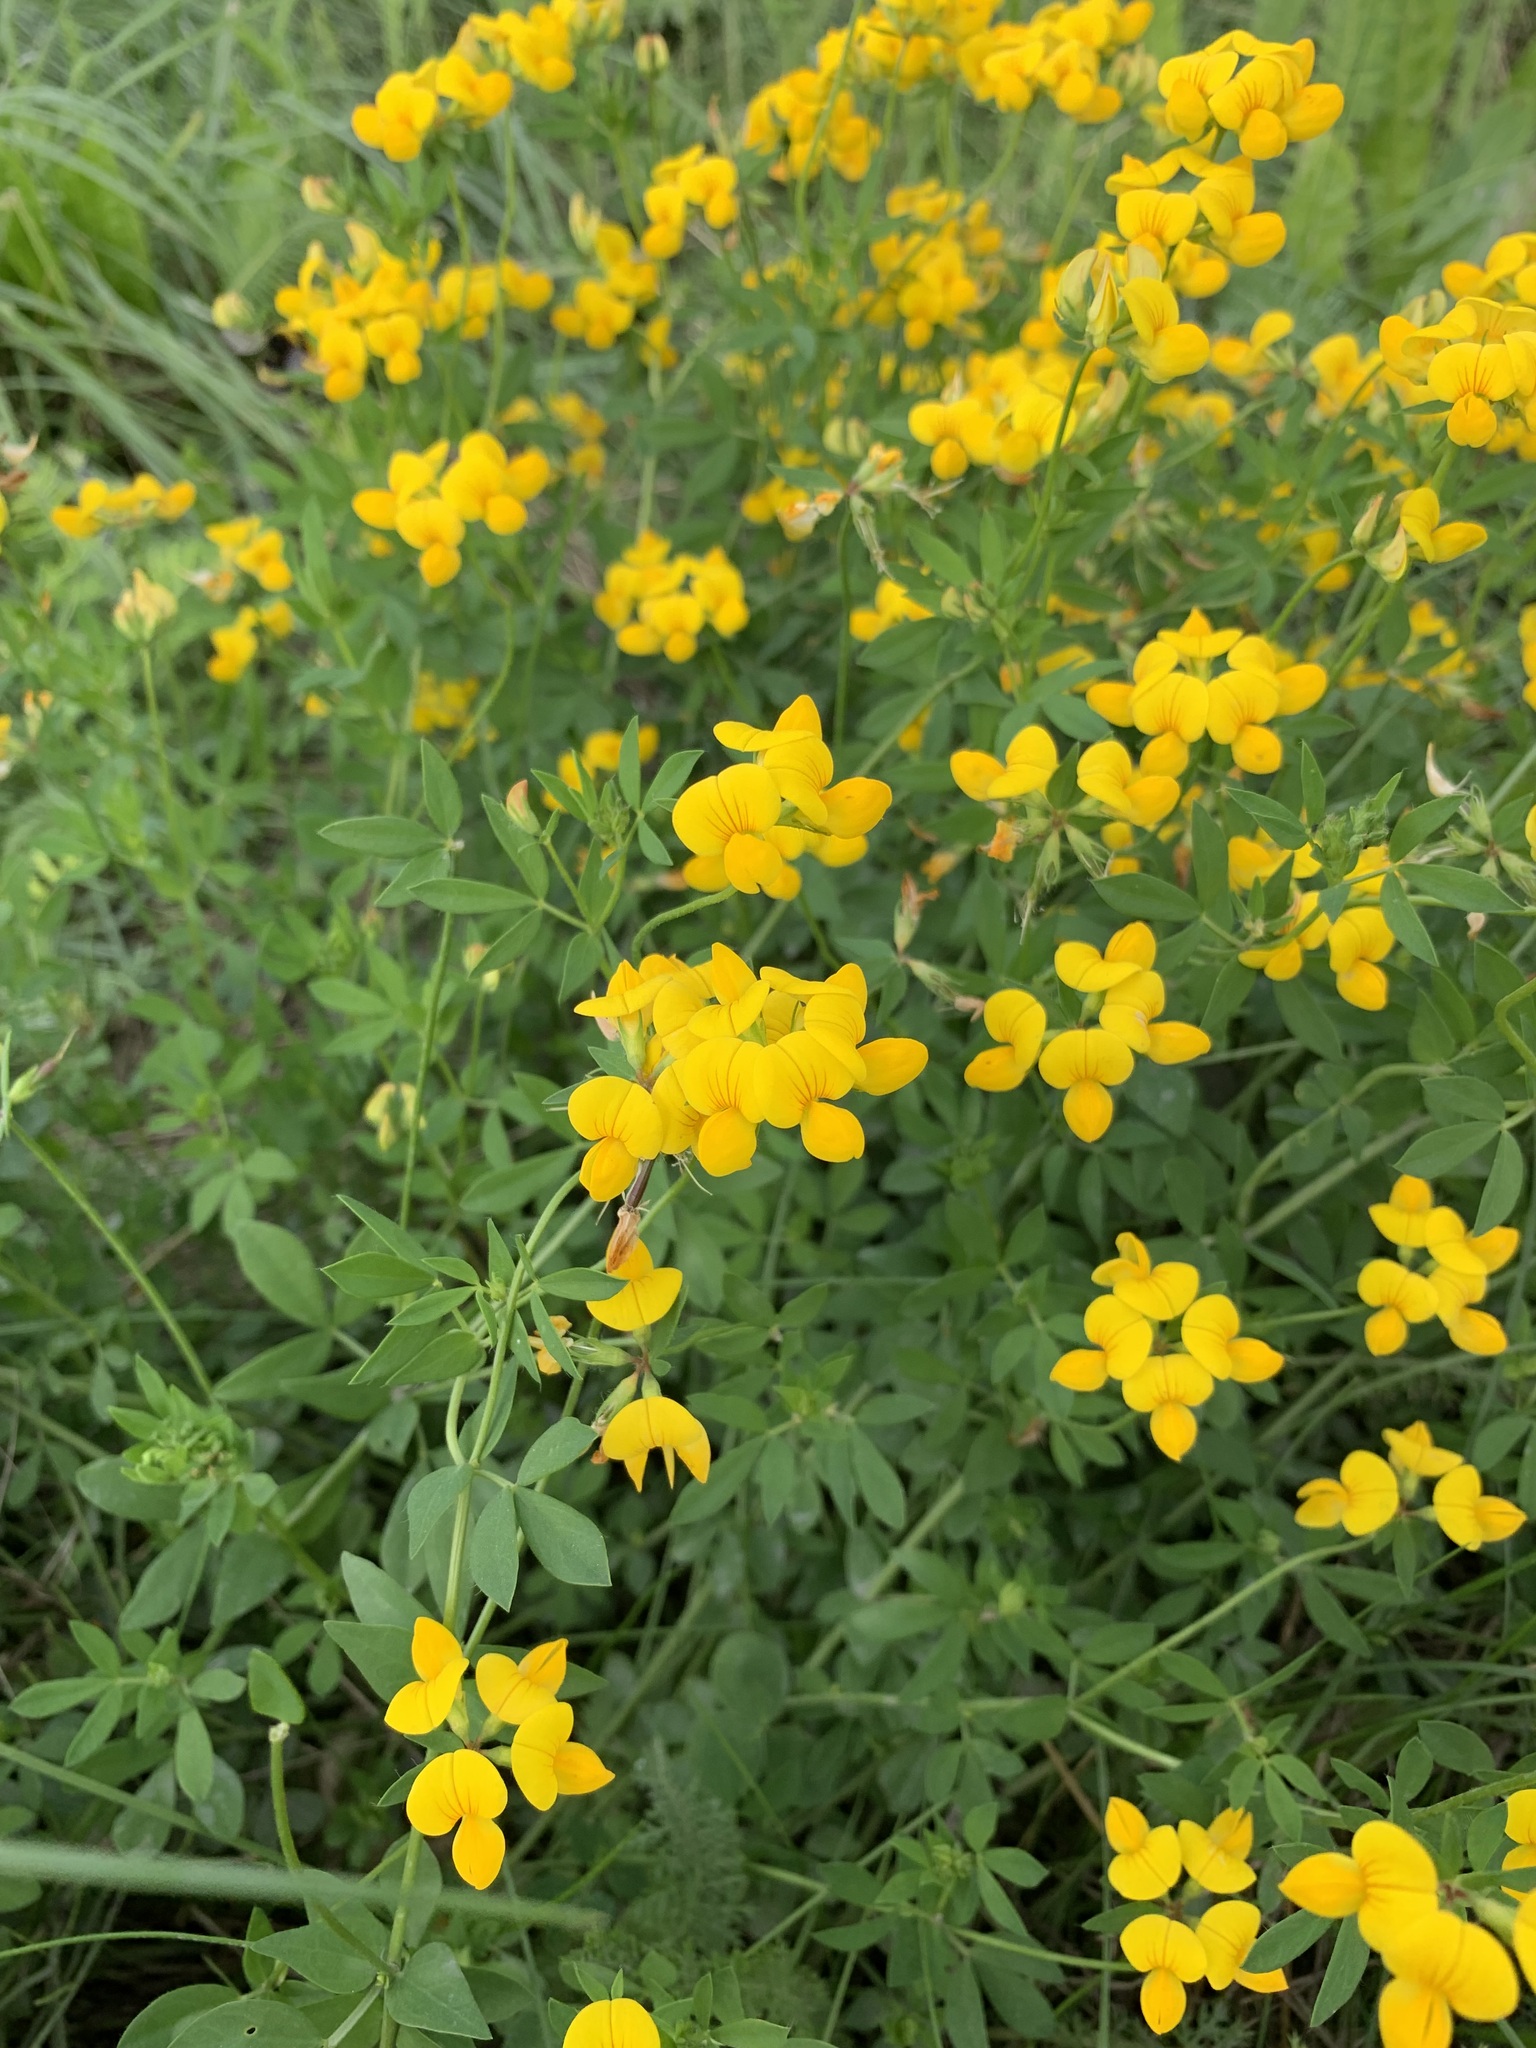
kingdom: Plantae
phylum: Tracheophyta
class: Magnoliopsida
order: Fabales
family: Fabaceae
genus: Lotus
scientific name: Lotus corniculatus
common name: Common bird's-foot-trefoil
